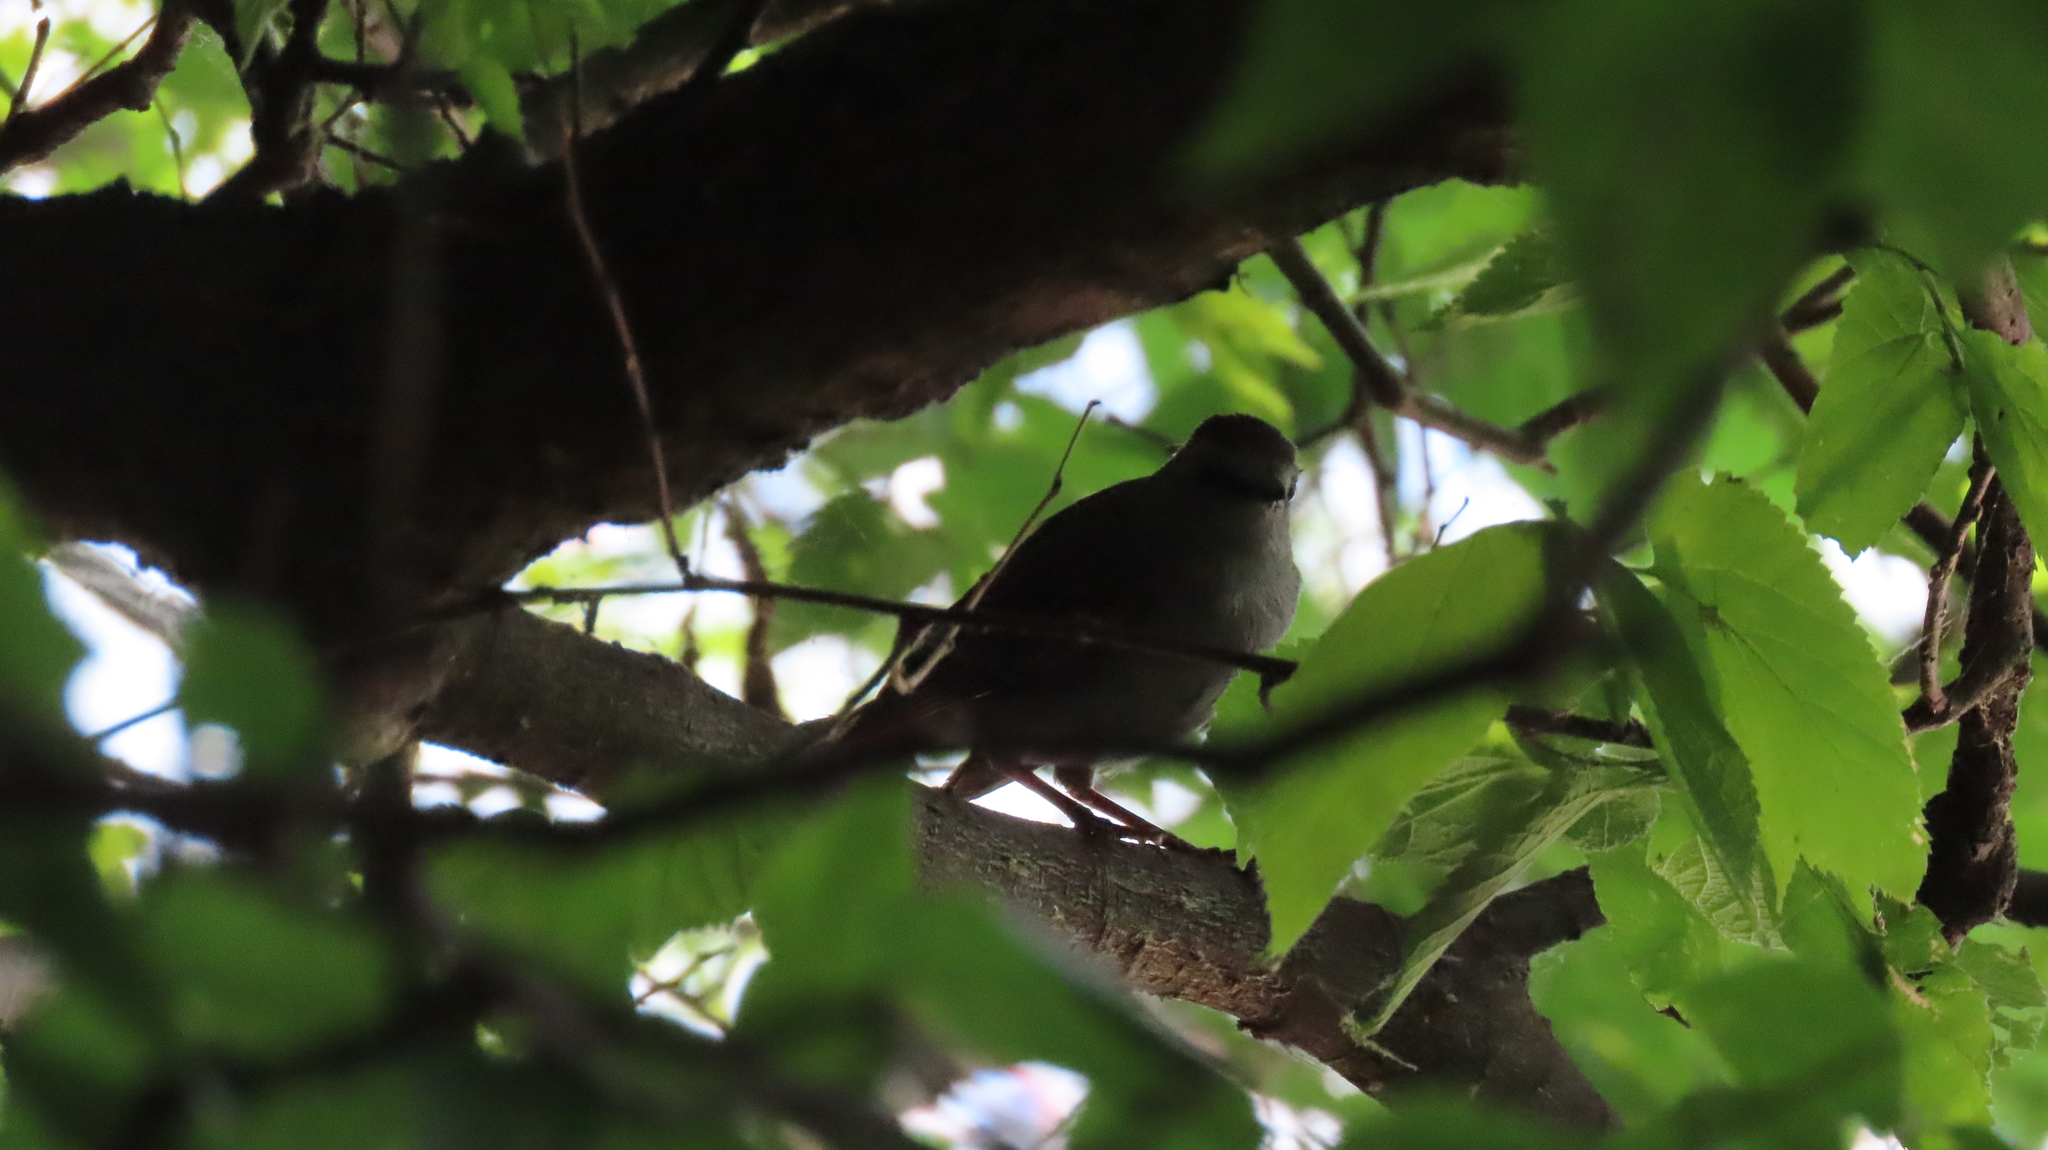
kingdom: Animalia
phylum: Chordata
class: Aves
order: Passeriformes
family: Mimidae
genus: Dumetella
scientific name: Dumetella carolinensis
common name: Gray catbird
